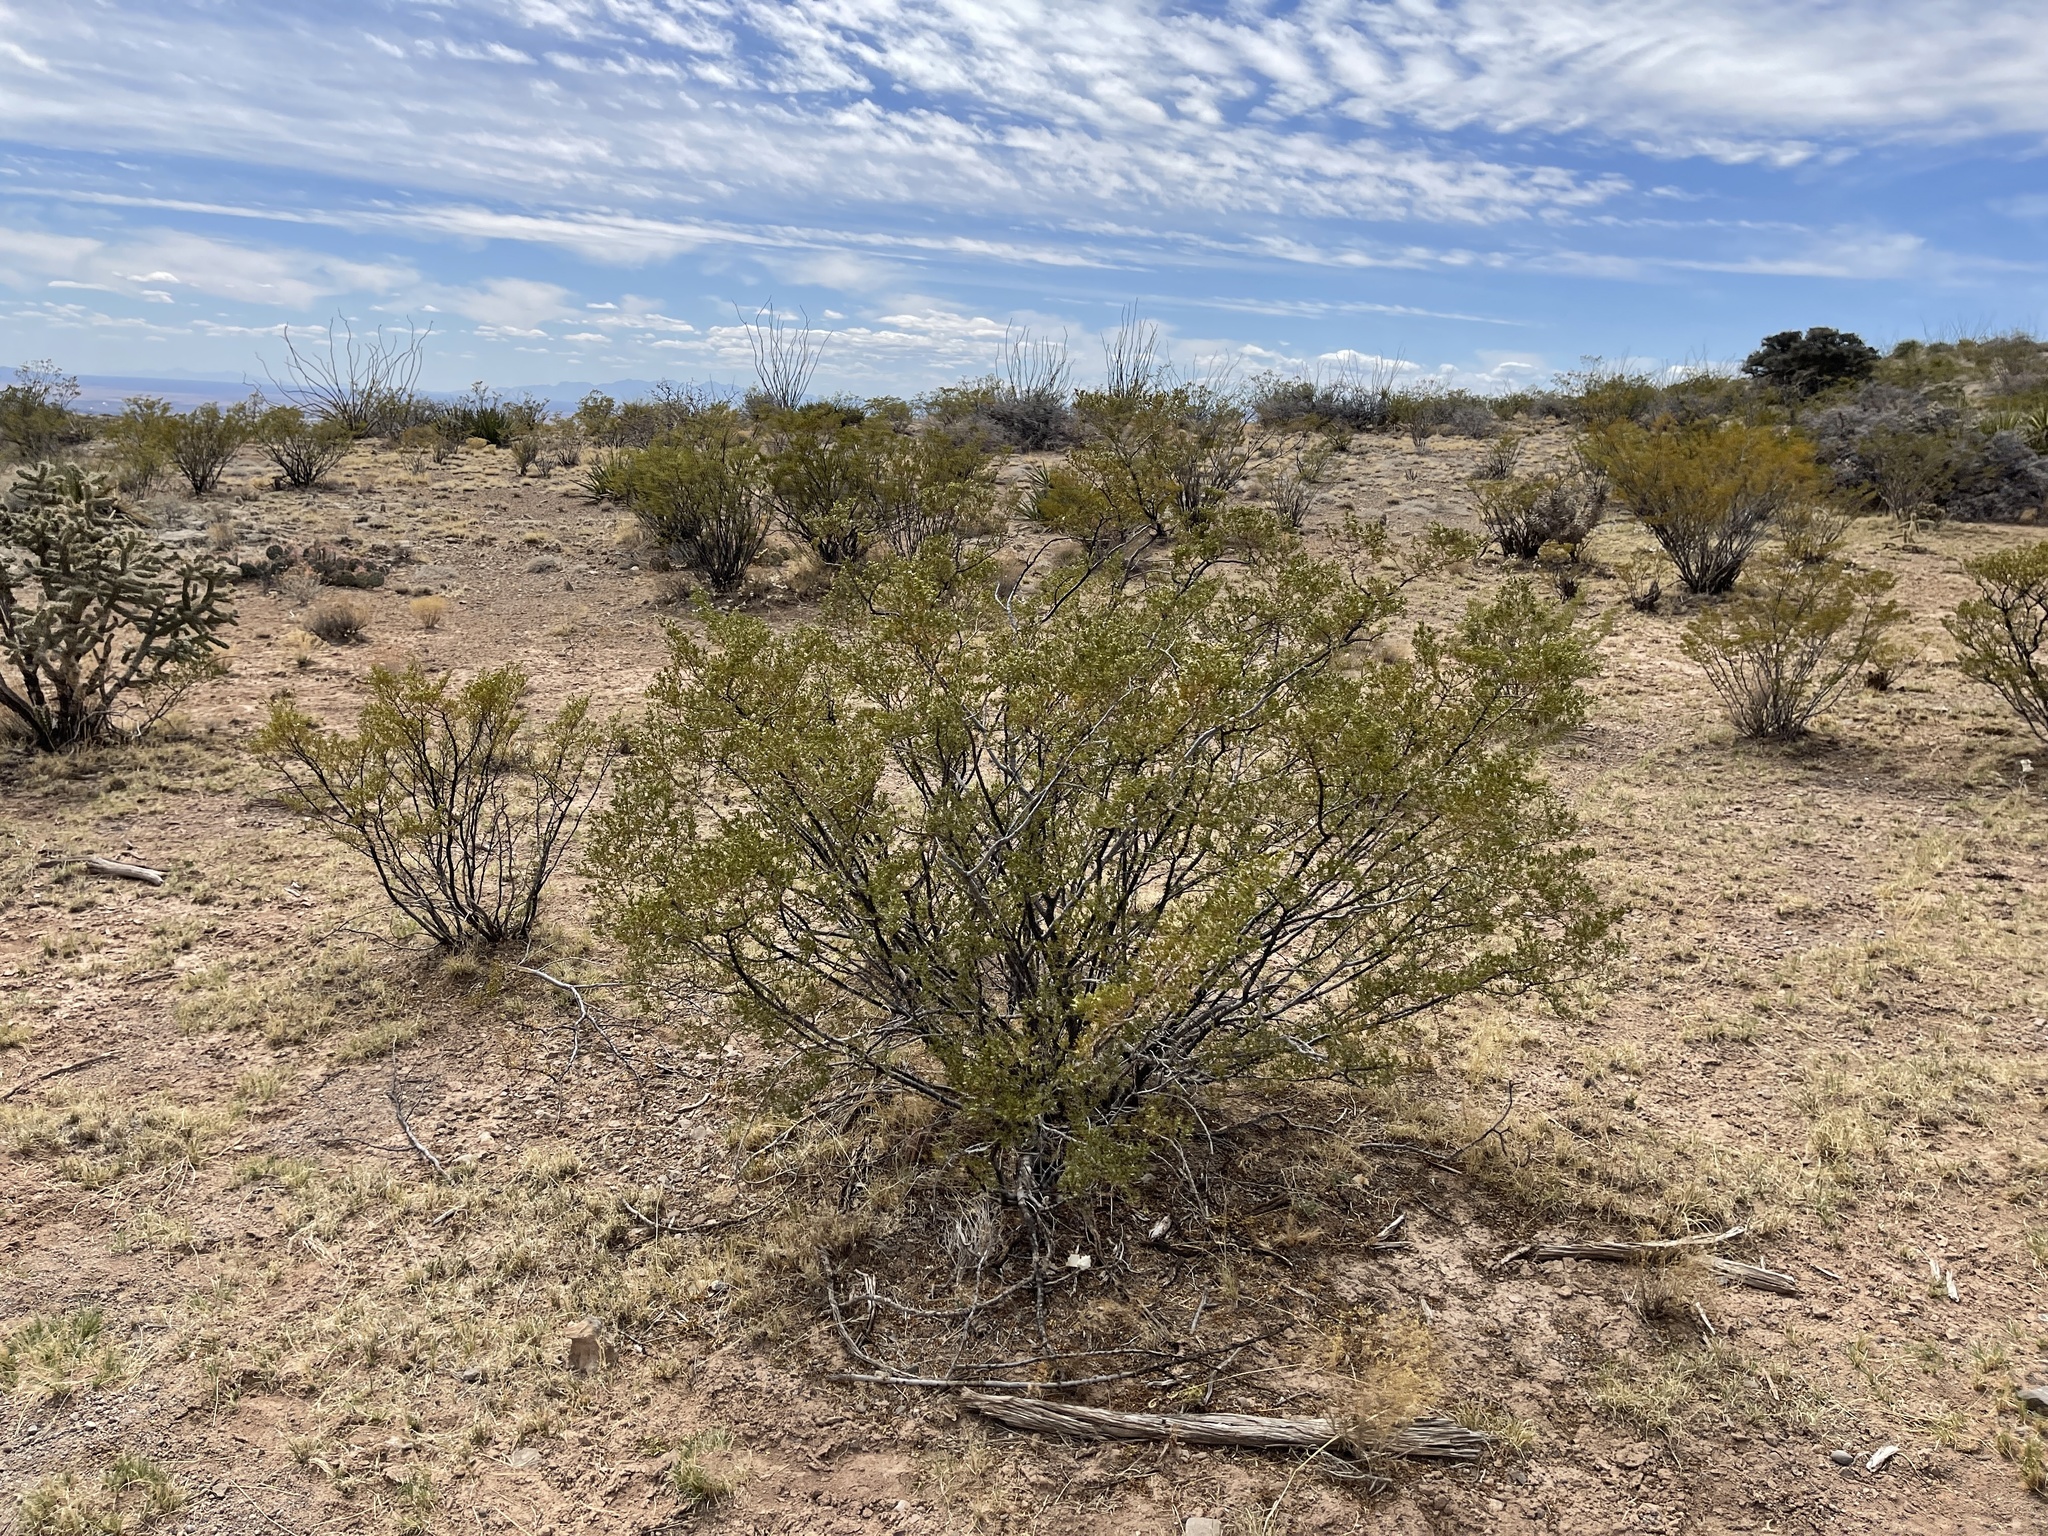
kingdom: Plantae
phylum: Tracheophyta
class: Magnoliopsida
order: Zygophyllales
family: Zygophyllaceae
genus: Larrea
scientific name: Larrea tridentata
